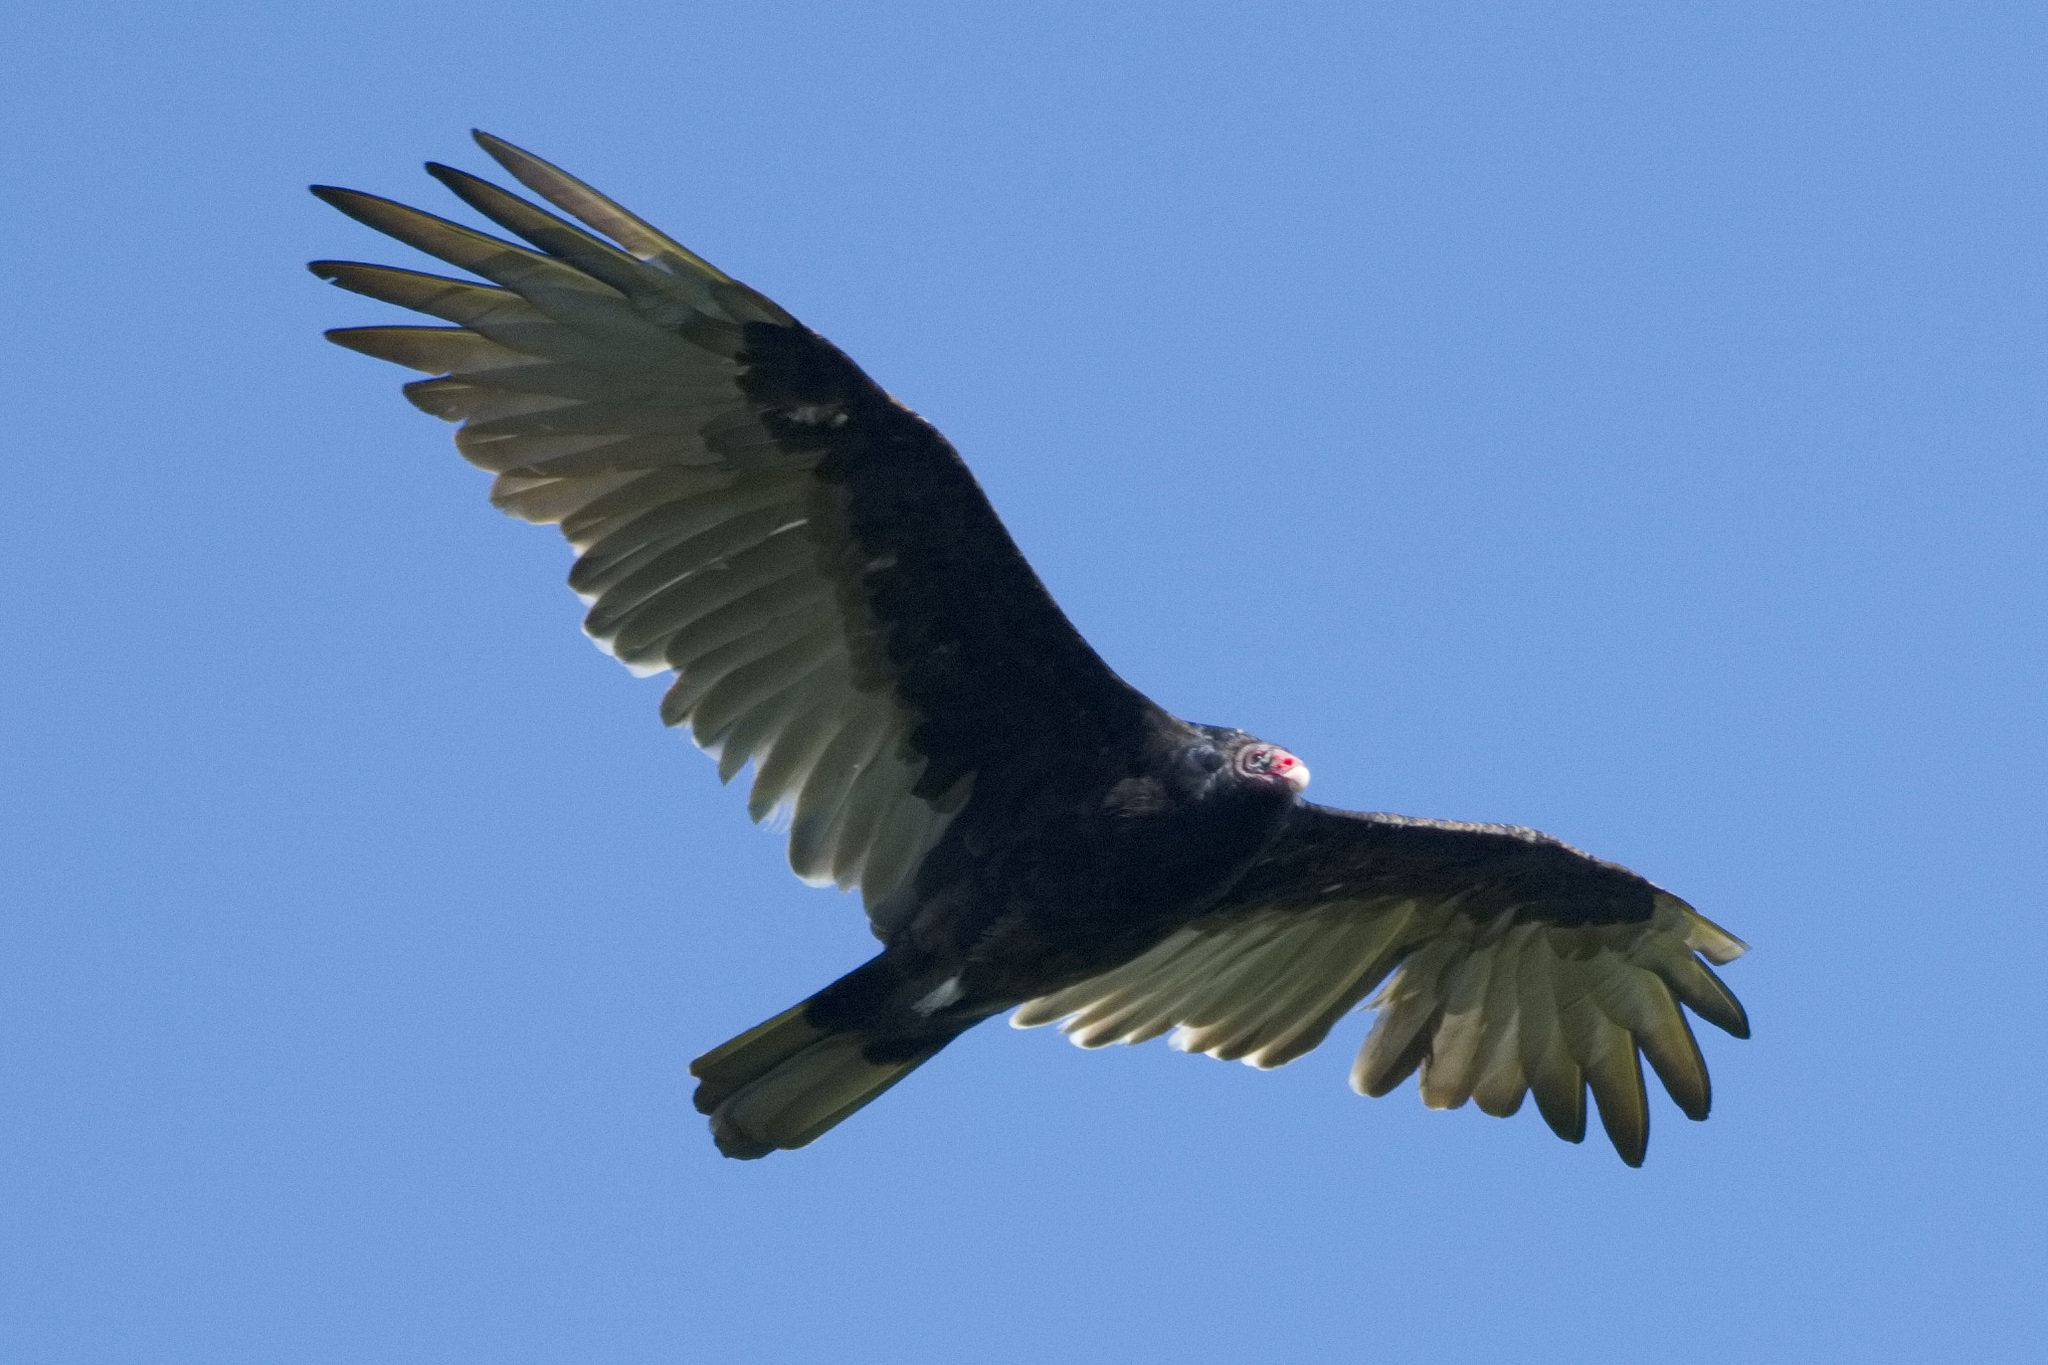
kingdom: Animalia
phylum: Chordata
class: Aves
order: Accipitriformes
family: Cathartidae
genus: Cathartes
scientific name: Cathartes aura
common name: Turkey vulture
